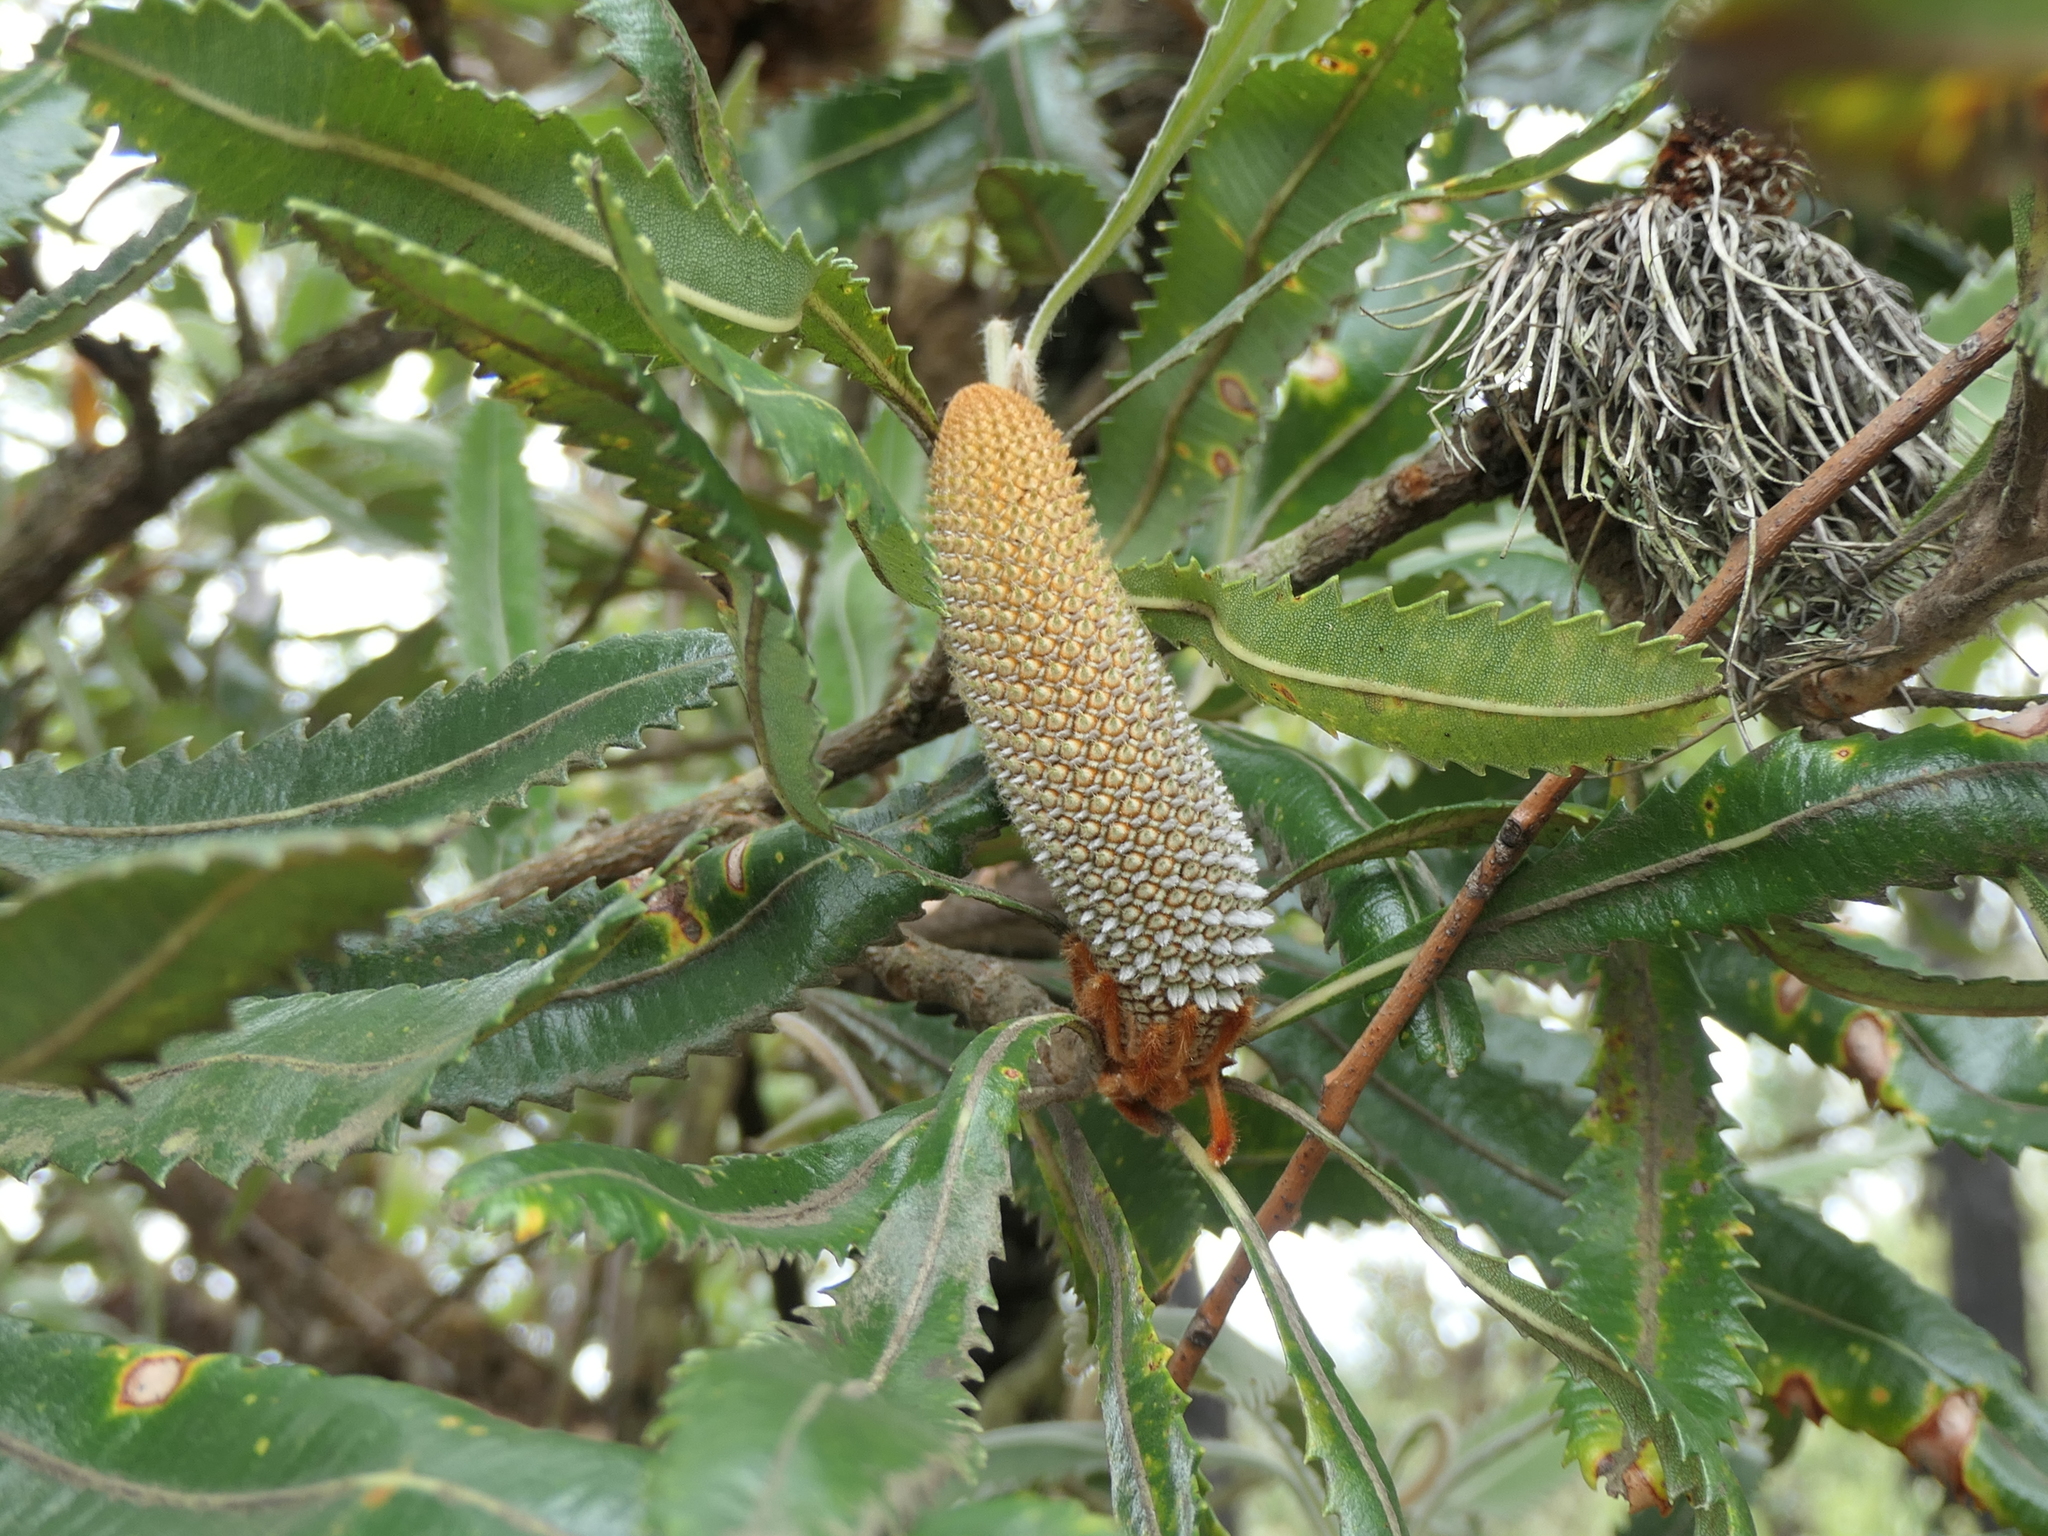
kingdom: Plantae
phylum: Tracheophyta
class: Magnoliopsida
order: Proteales
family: Proteaceae
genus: Banksia
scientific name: Banksia serrata
